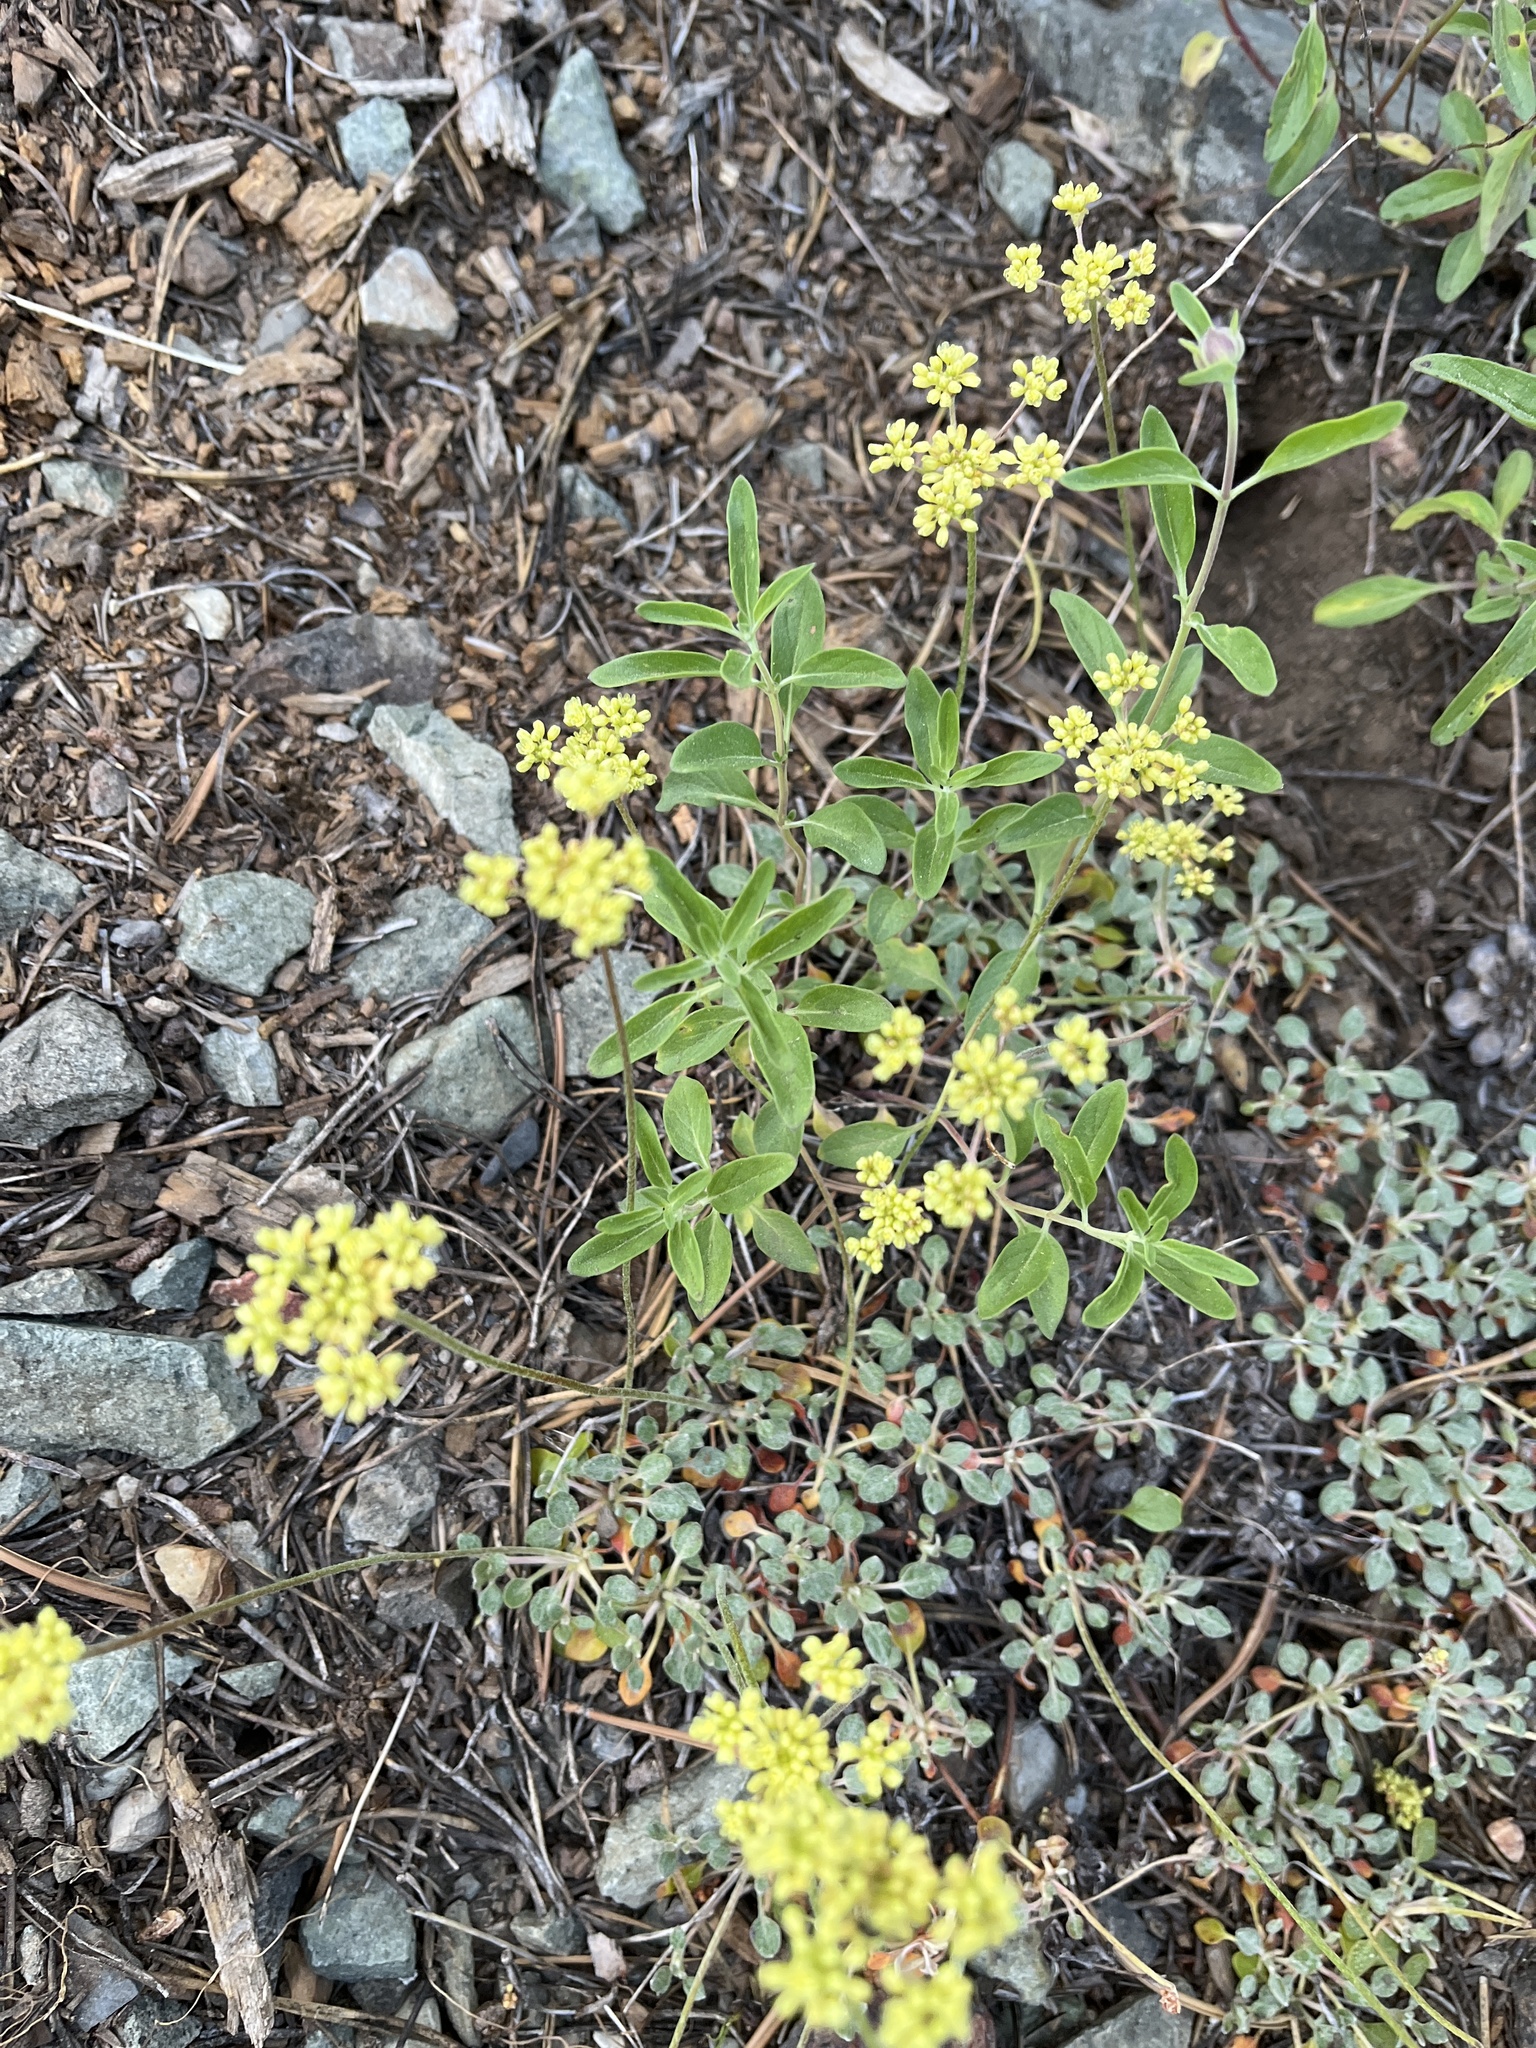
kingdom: Plantae
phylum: Tracheophyta
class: Magnoliopsida
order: Caryophyllales
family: Polygonaceae
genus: Eriogonum
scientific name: Eriogonum umbellatum
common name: Sulfur-buckwheat
